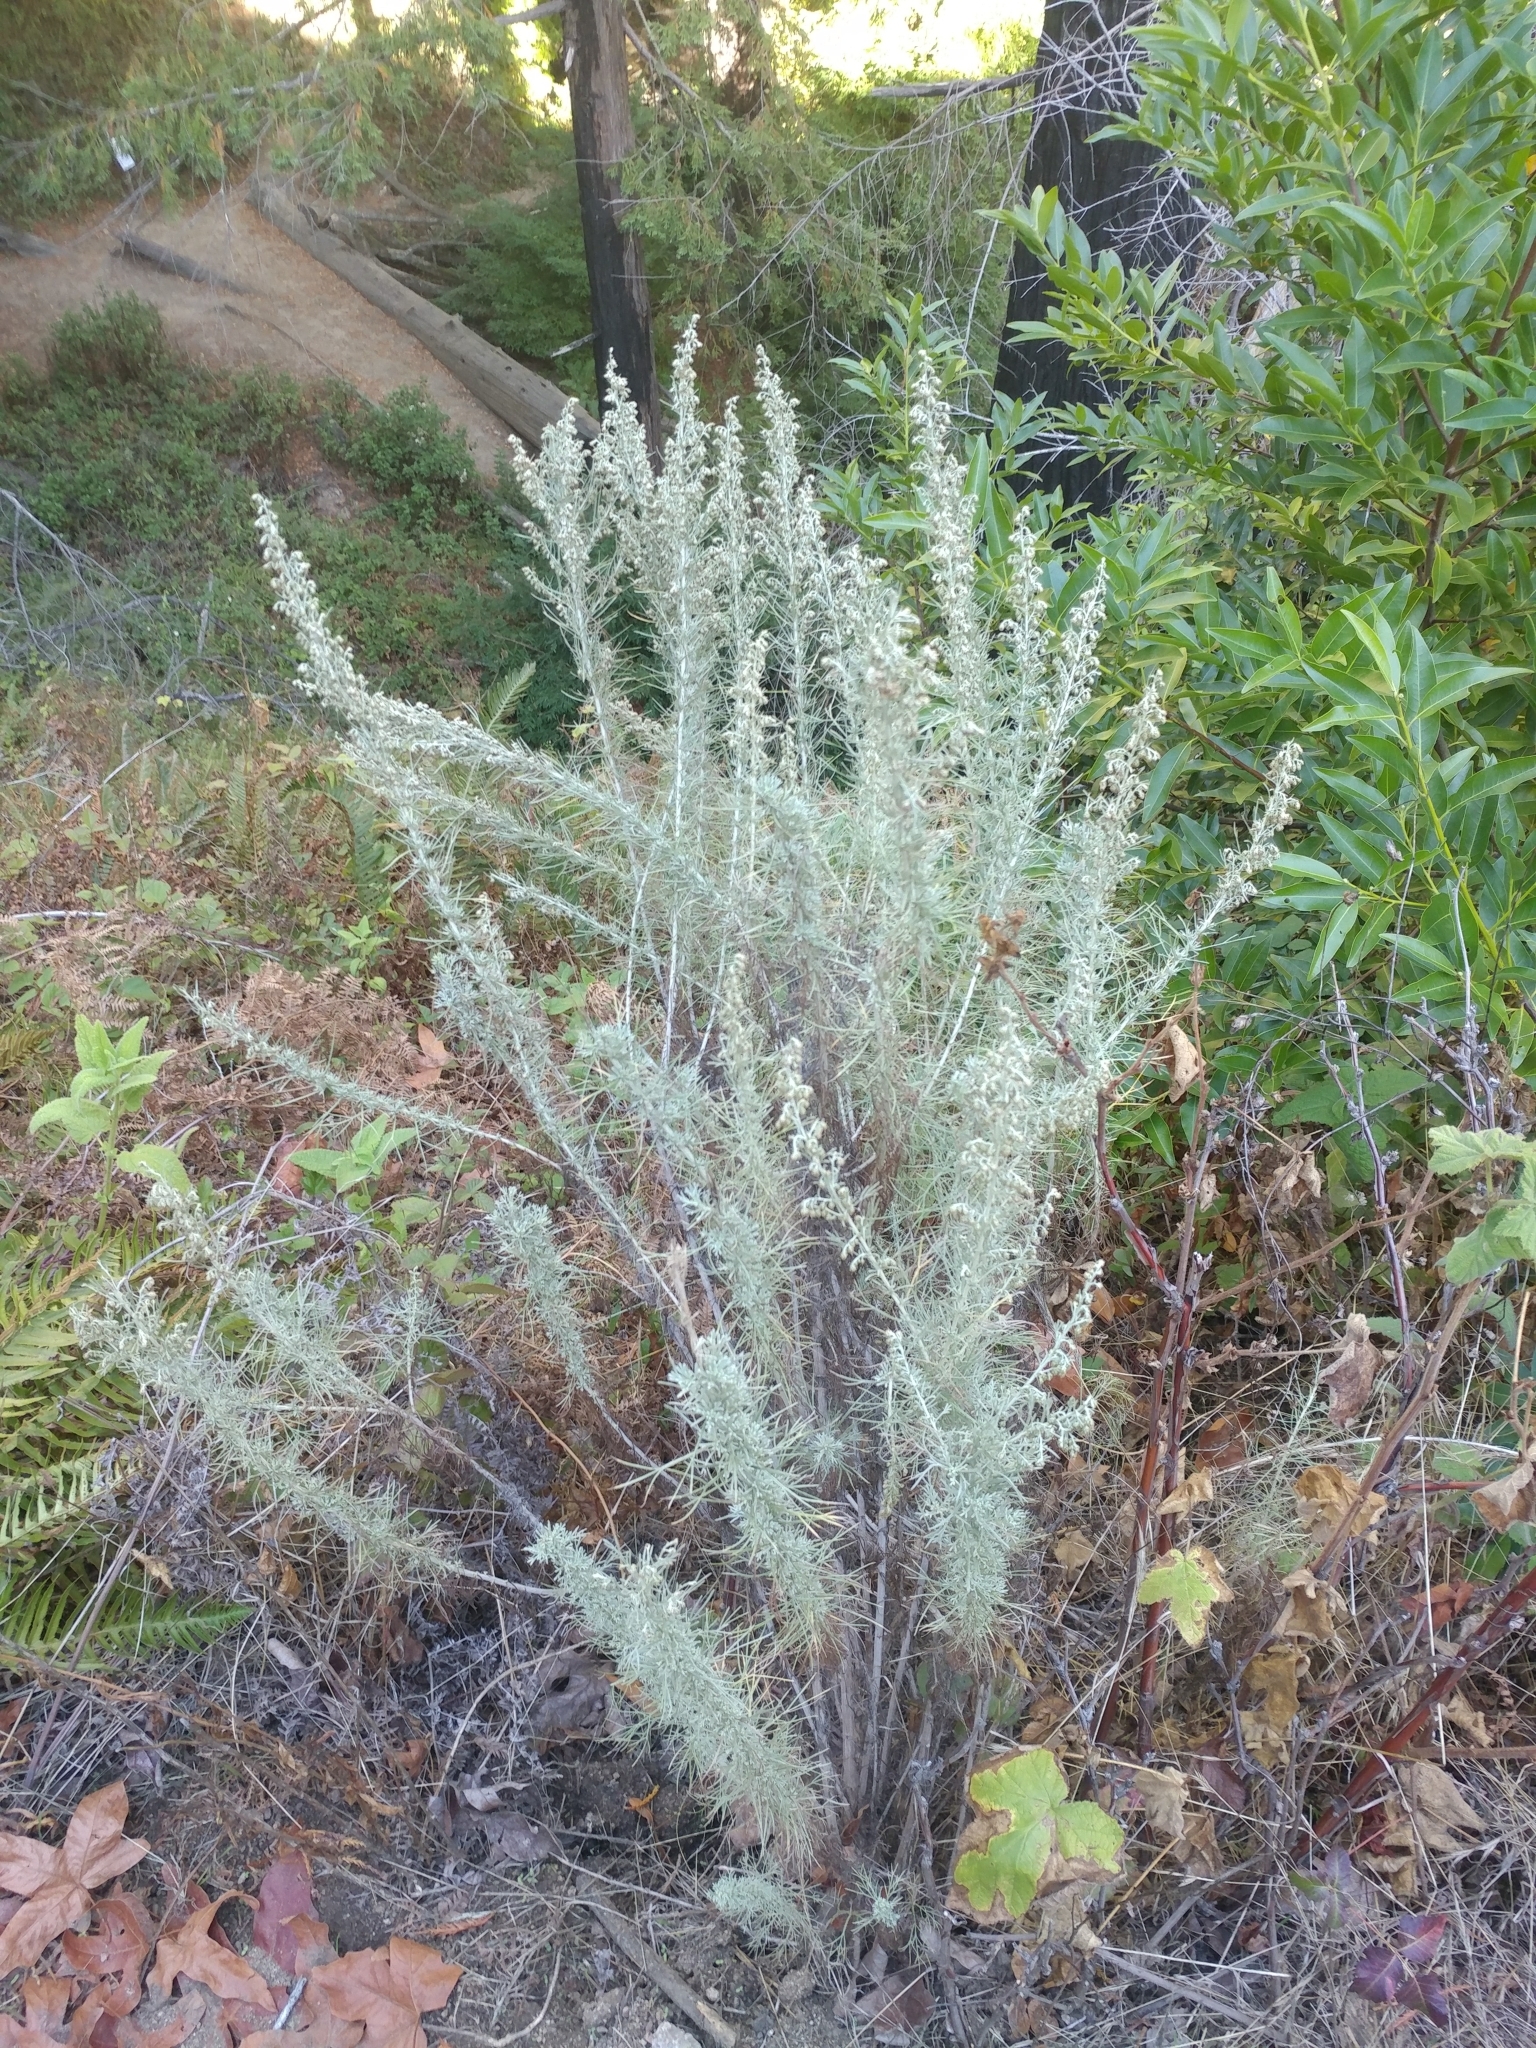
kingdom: Plantae
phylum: Tracheophyta
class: Magnoliopsida
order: Asterales
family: Asteraceae
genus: Artemisia
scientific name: Artemisia californica
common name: California sagebrush
